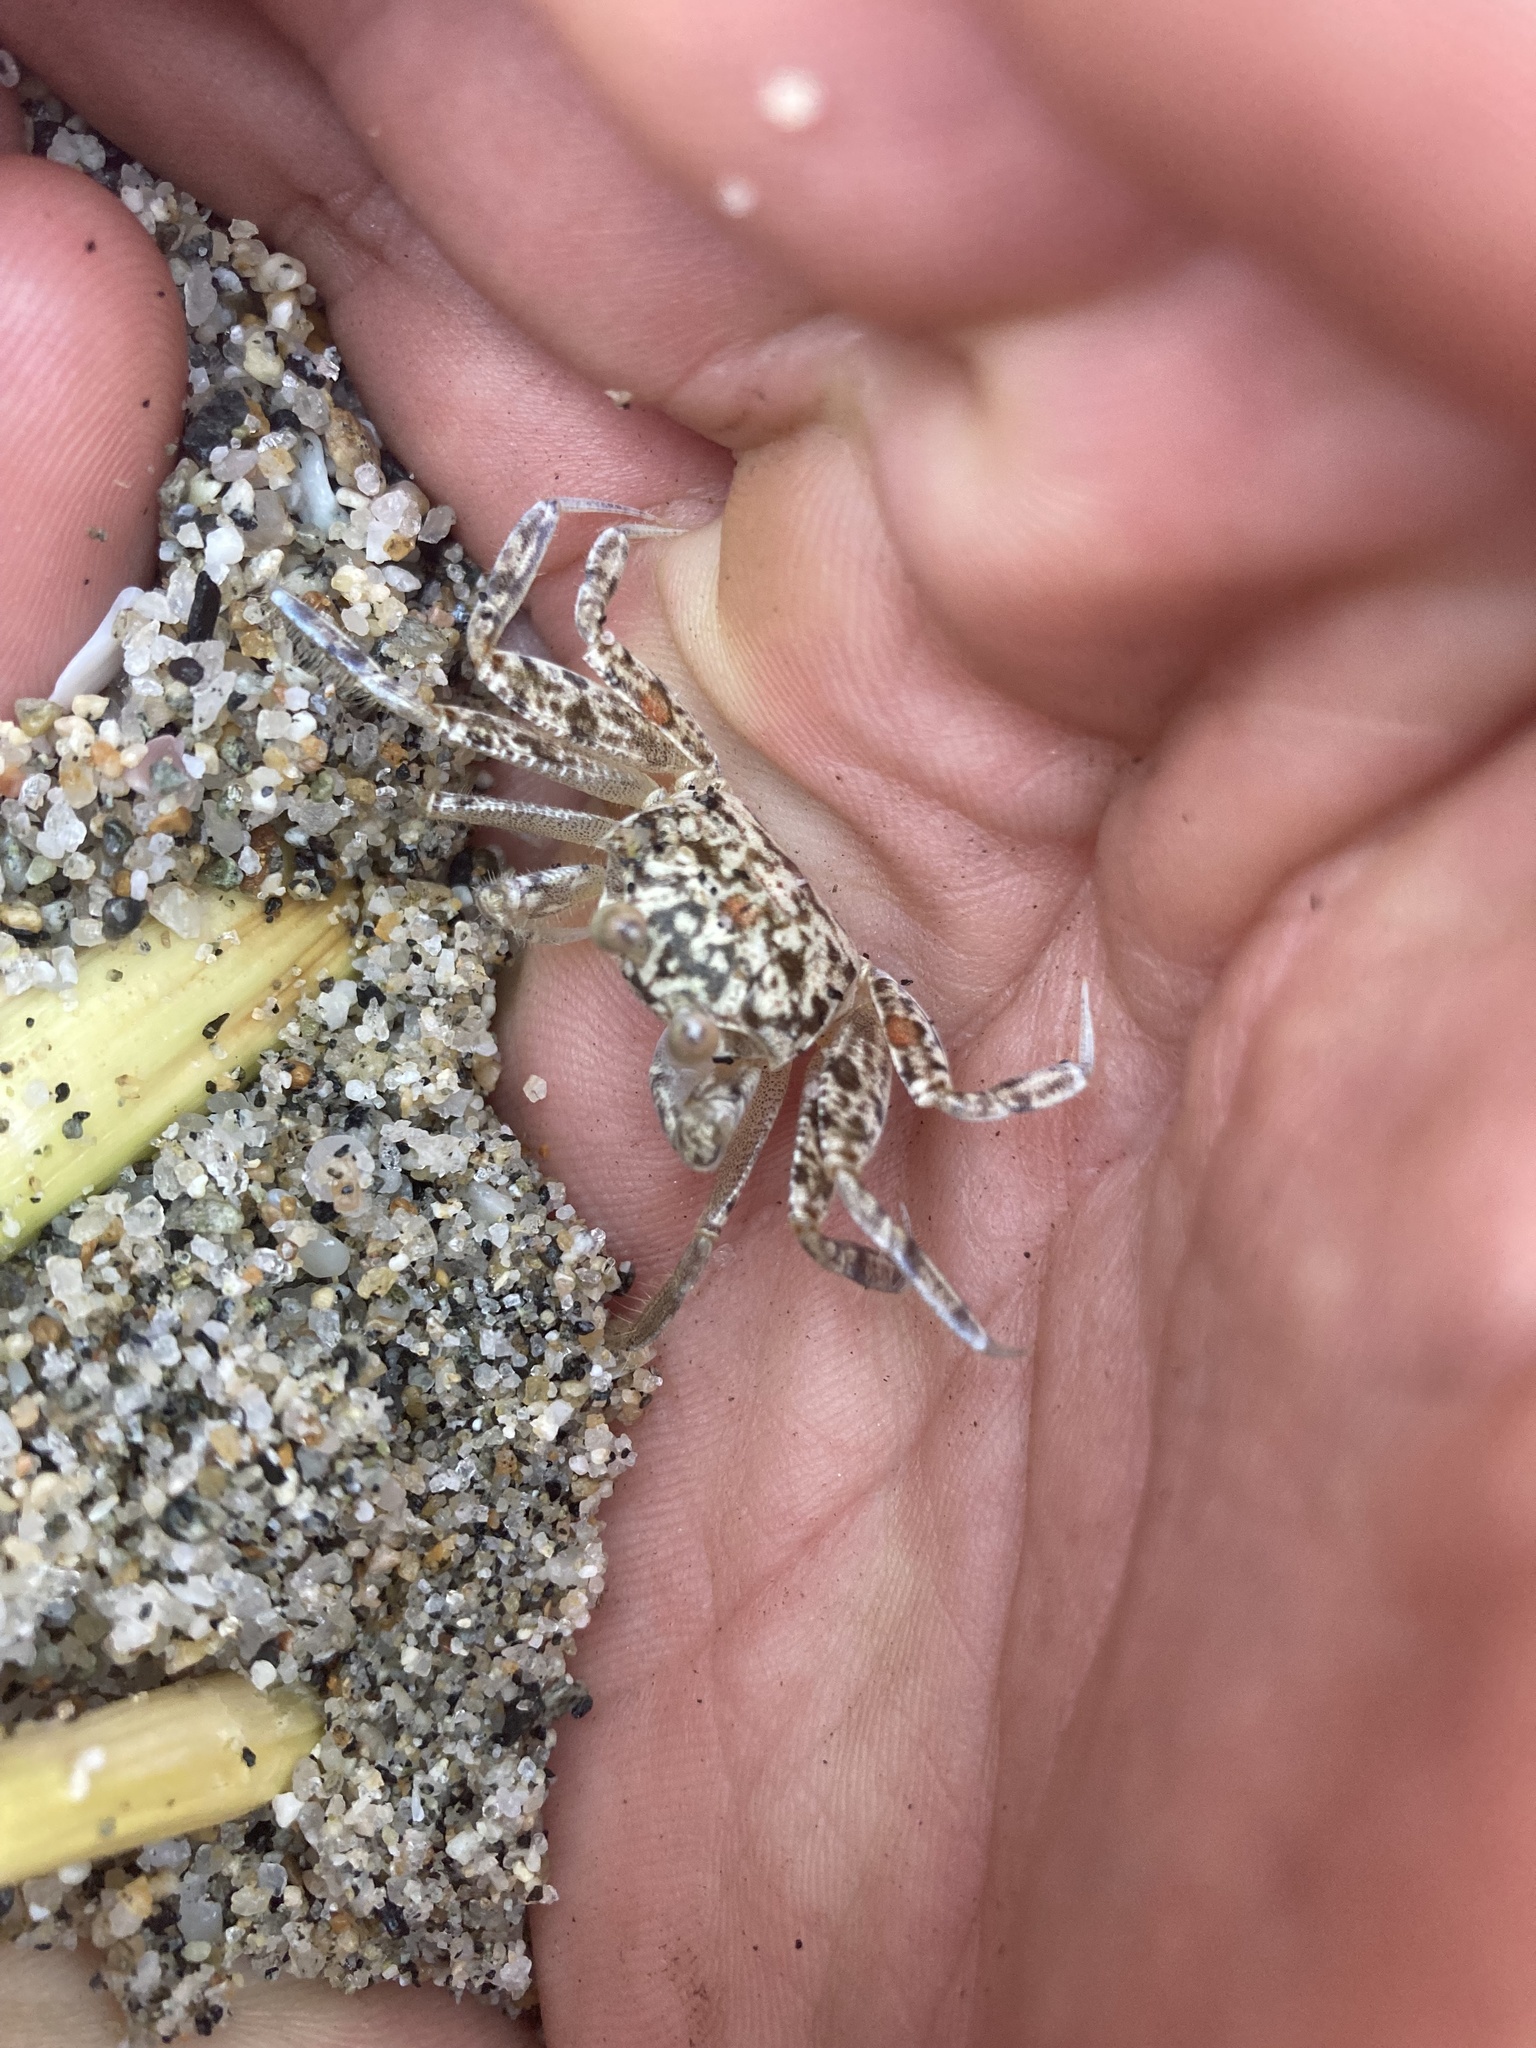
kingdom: Animalia
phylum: Arthropoda
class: Malacostraca
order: Decapoda
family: Ocypodidae
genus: Ocypode
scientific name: Ocypode quadrata
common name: Ghost crab
